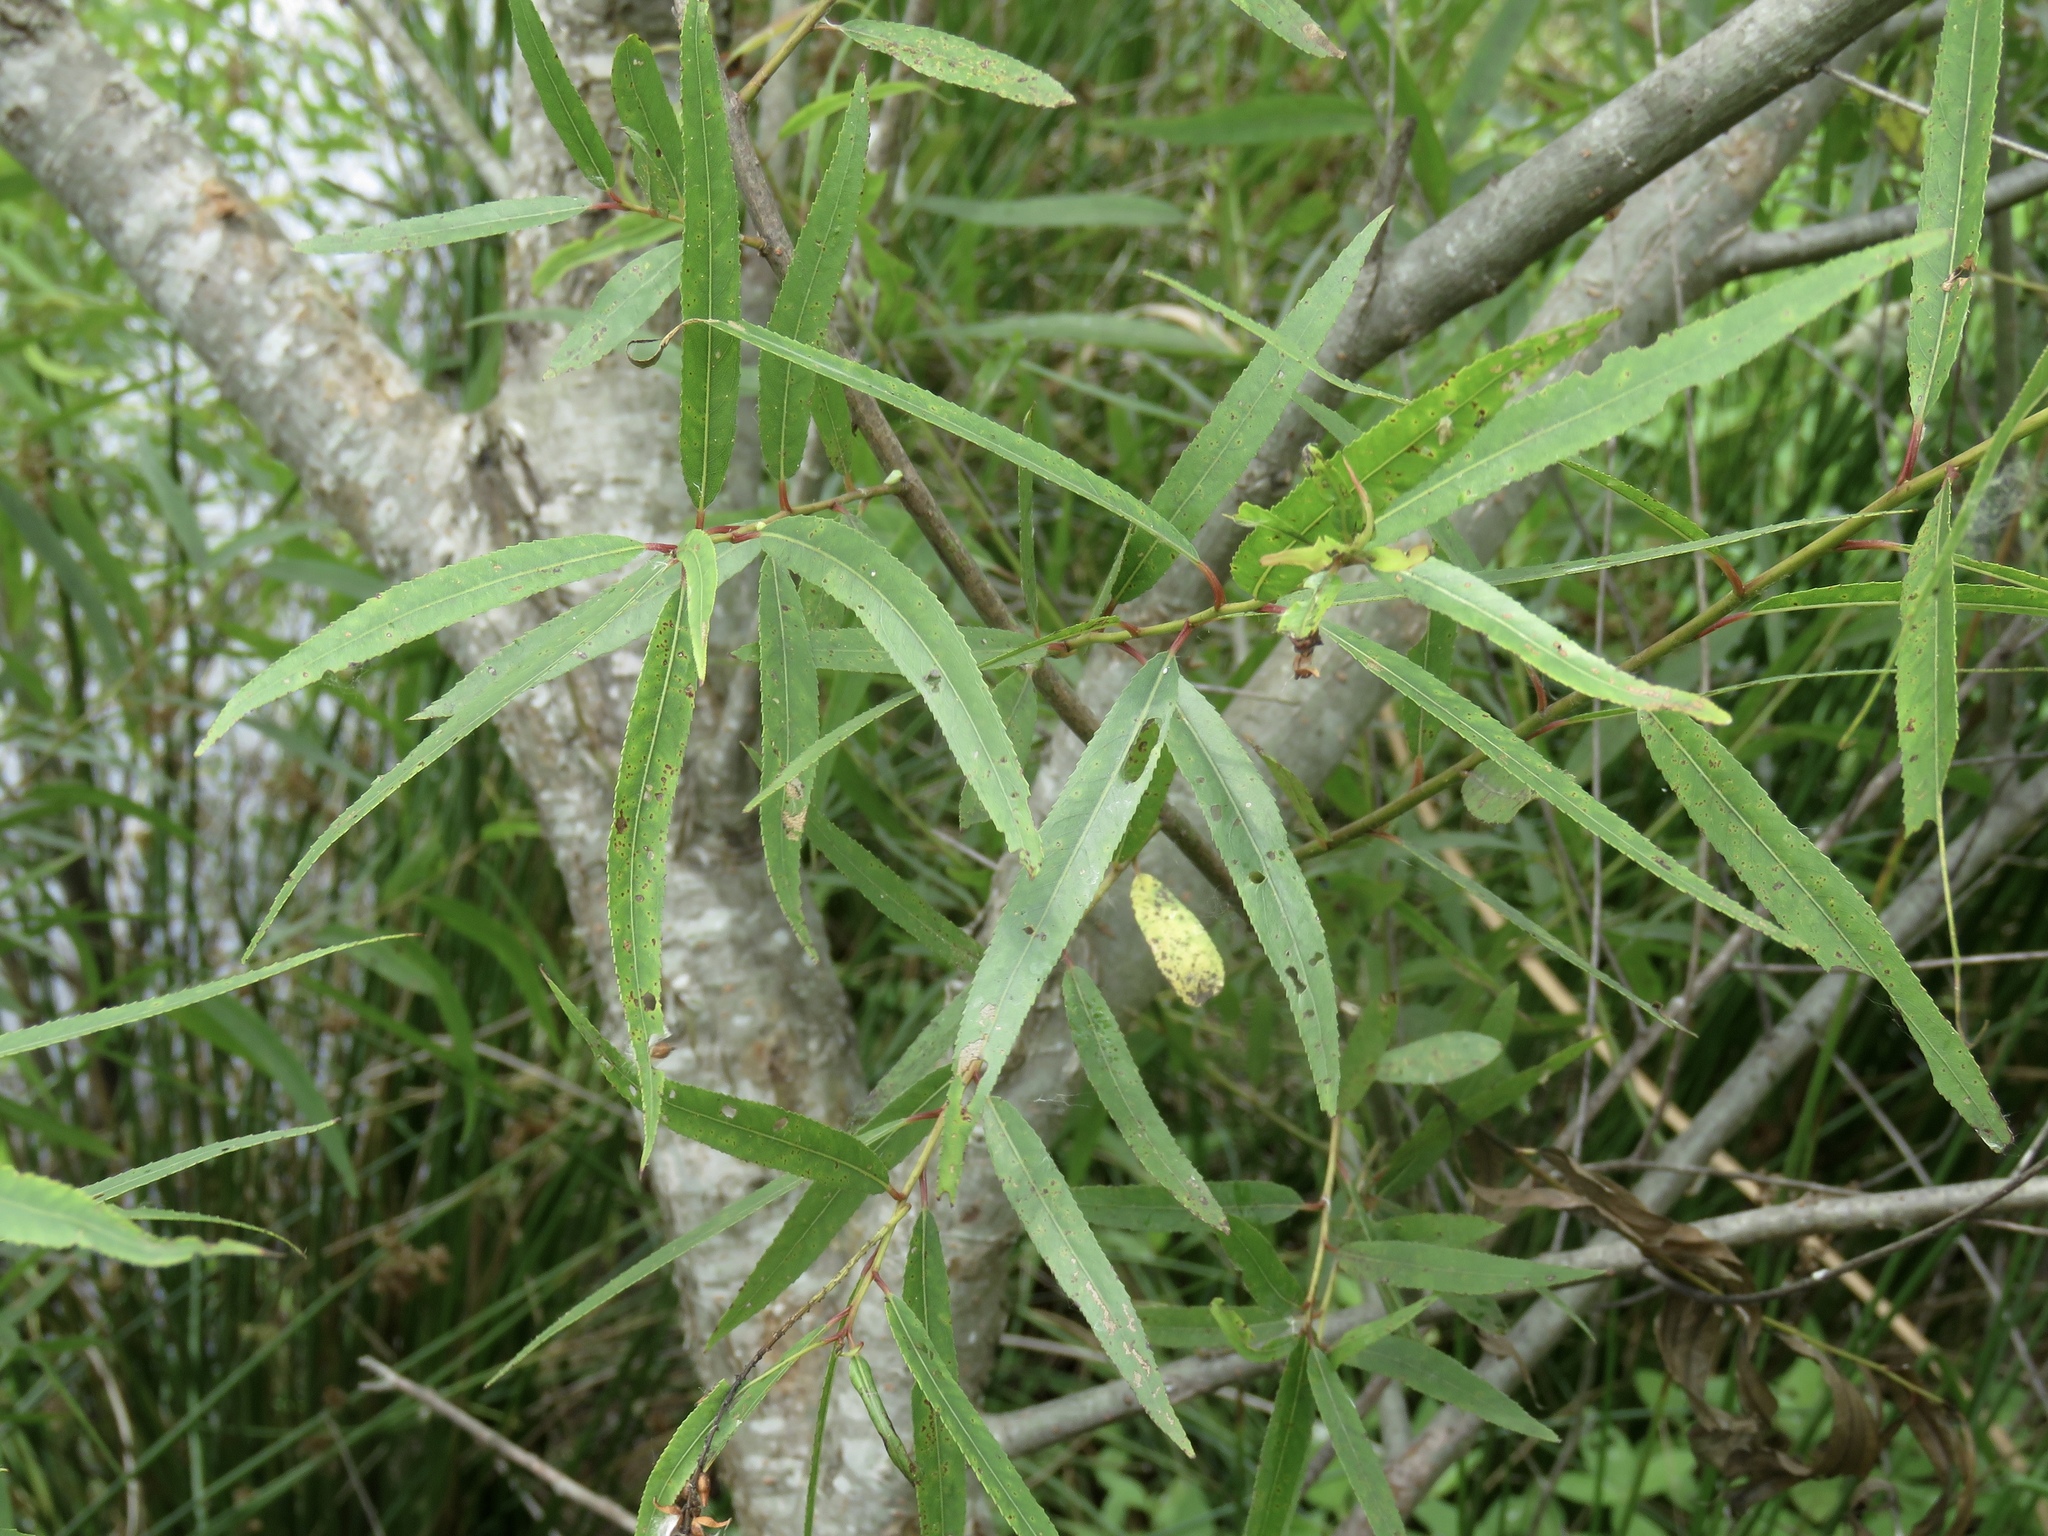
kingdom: Plantae
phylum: Tracheophyta
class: Magnoliopsida
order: Malpighiales
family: Salicaceae
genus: Salix
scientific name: Salix nigra
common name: Black willow
